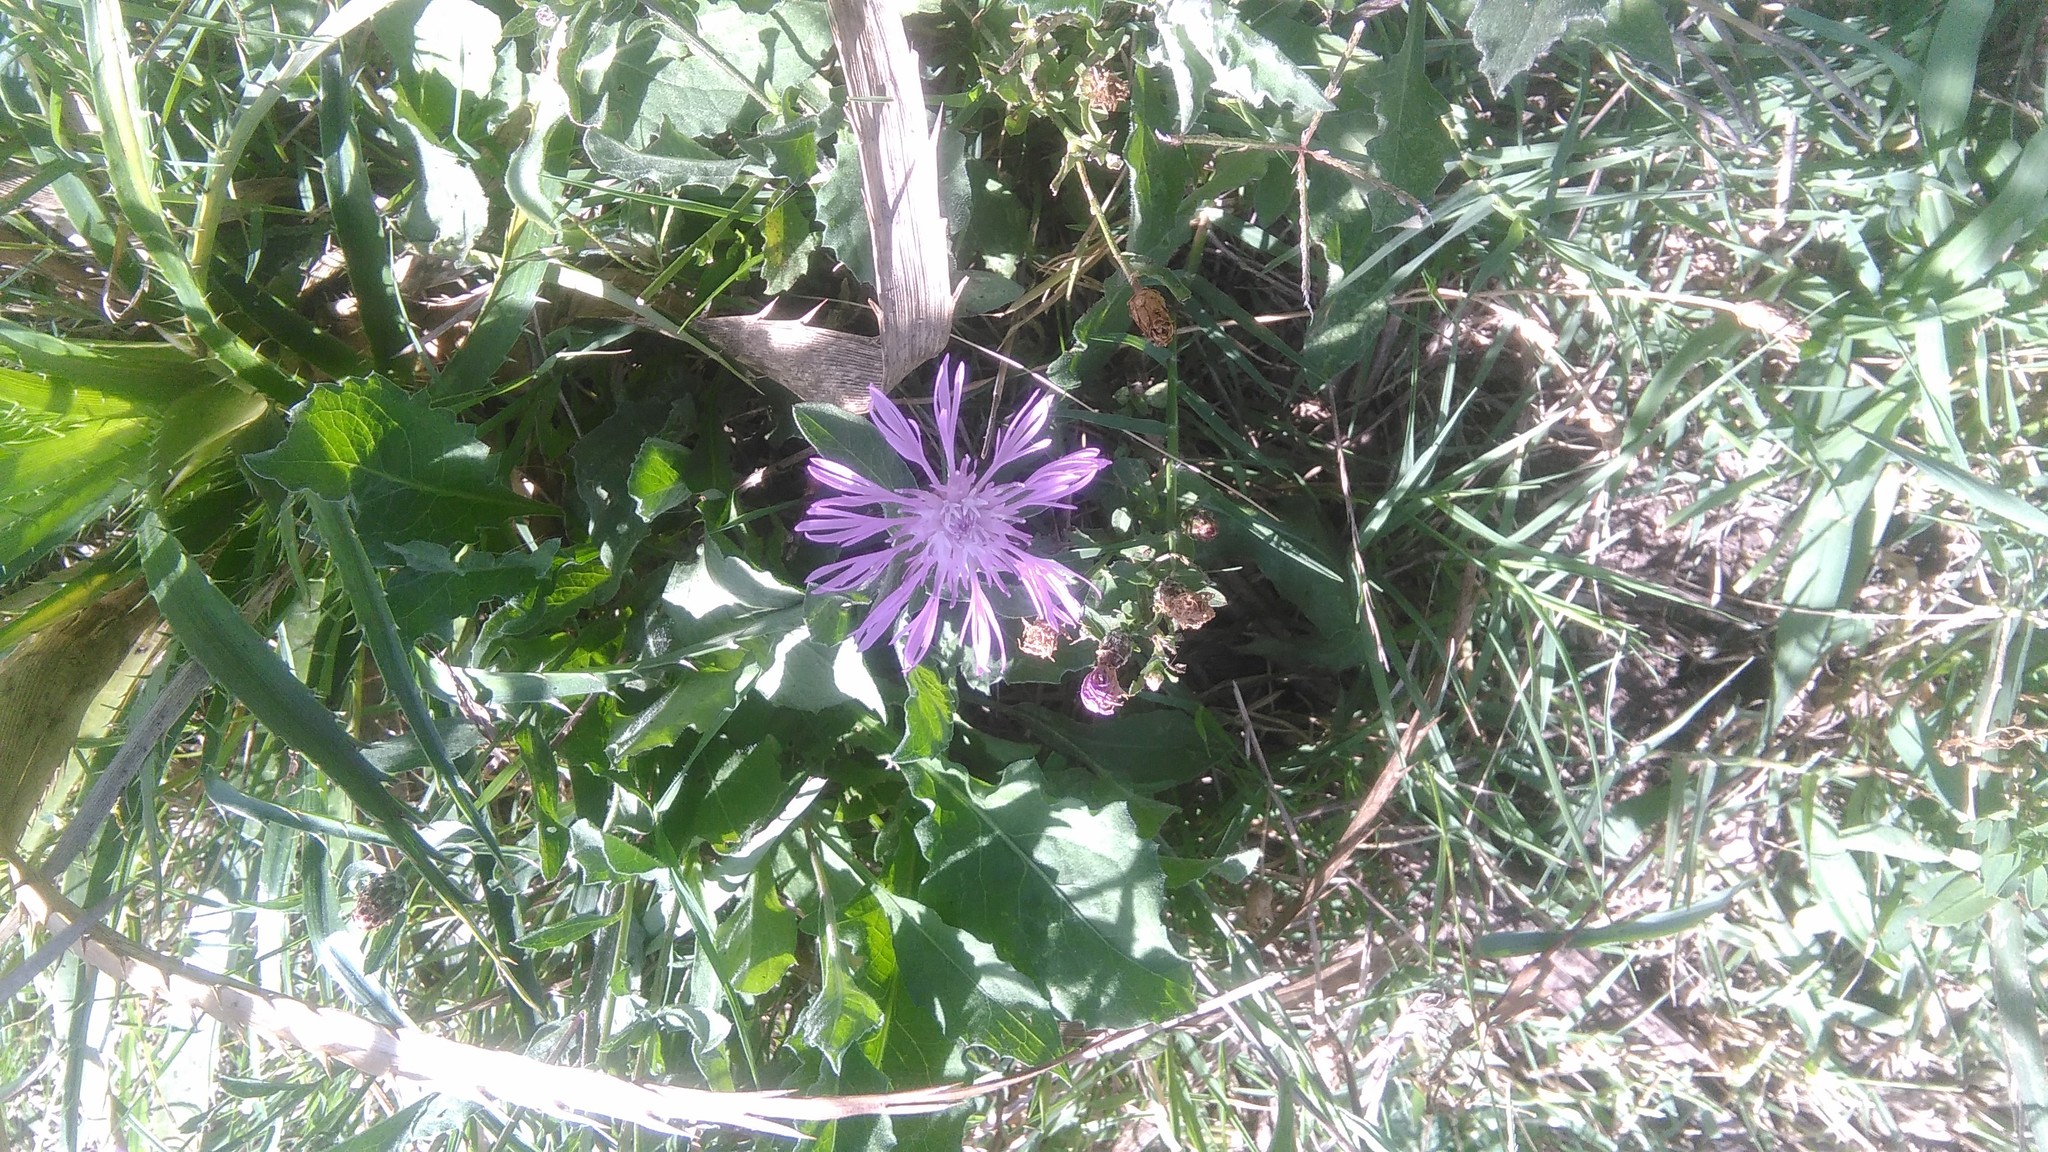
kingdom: Plantae
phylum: Tracheophyta
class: Magnoliopsida
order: Asterales
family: Asteraceae
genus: Centaurea
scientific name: Centaurea jacea
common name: Brown knapweed
